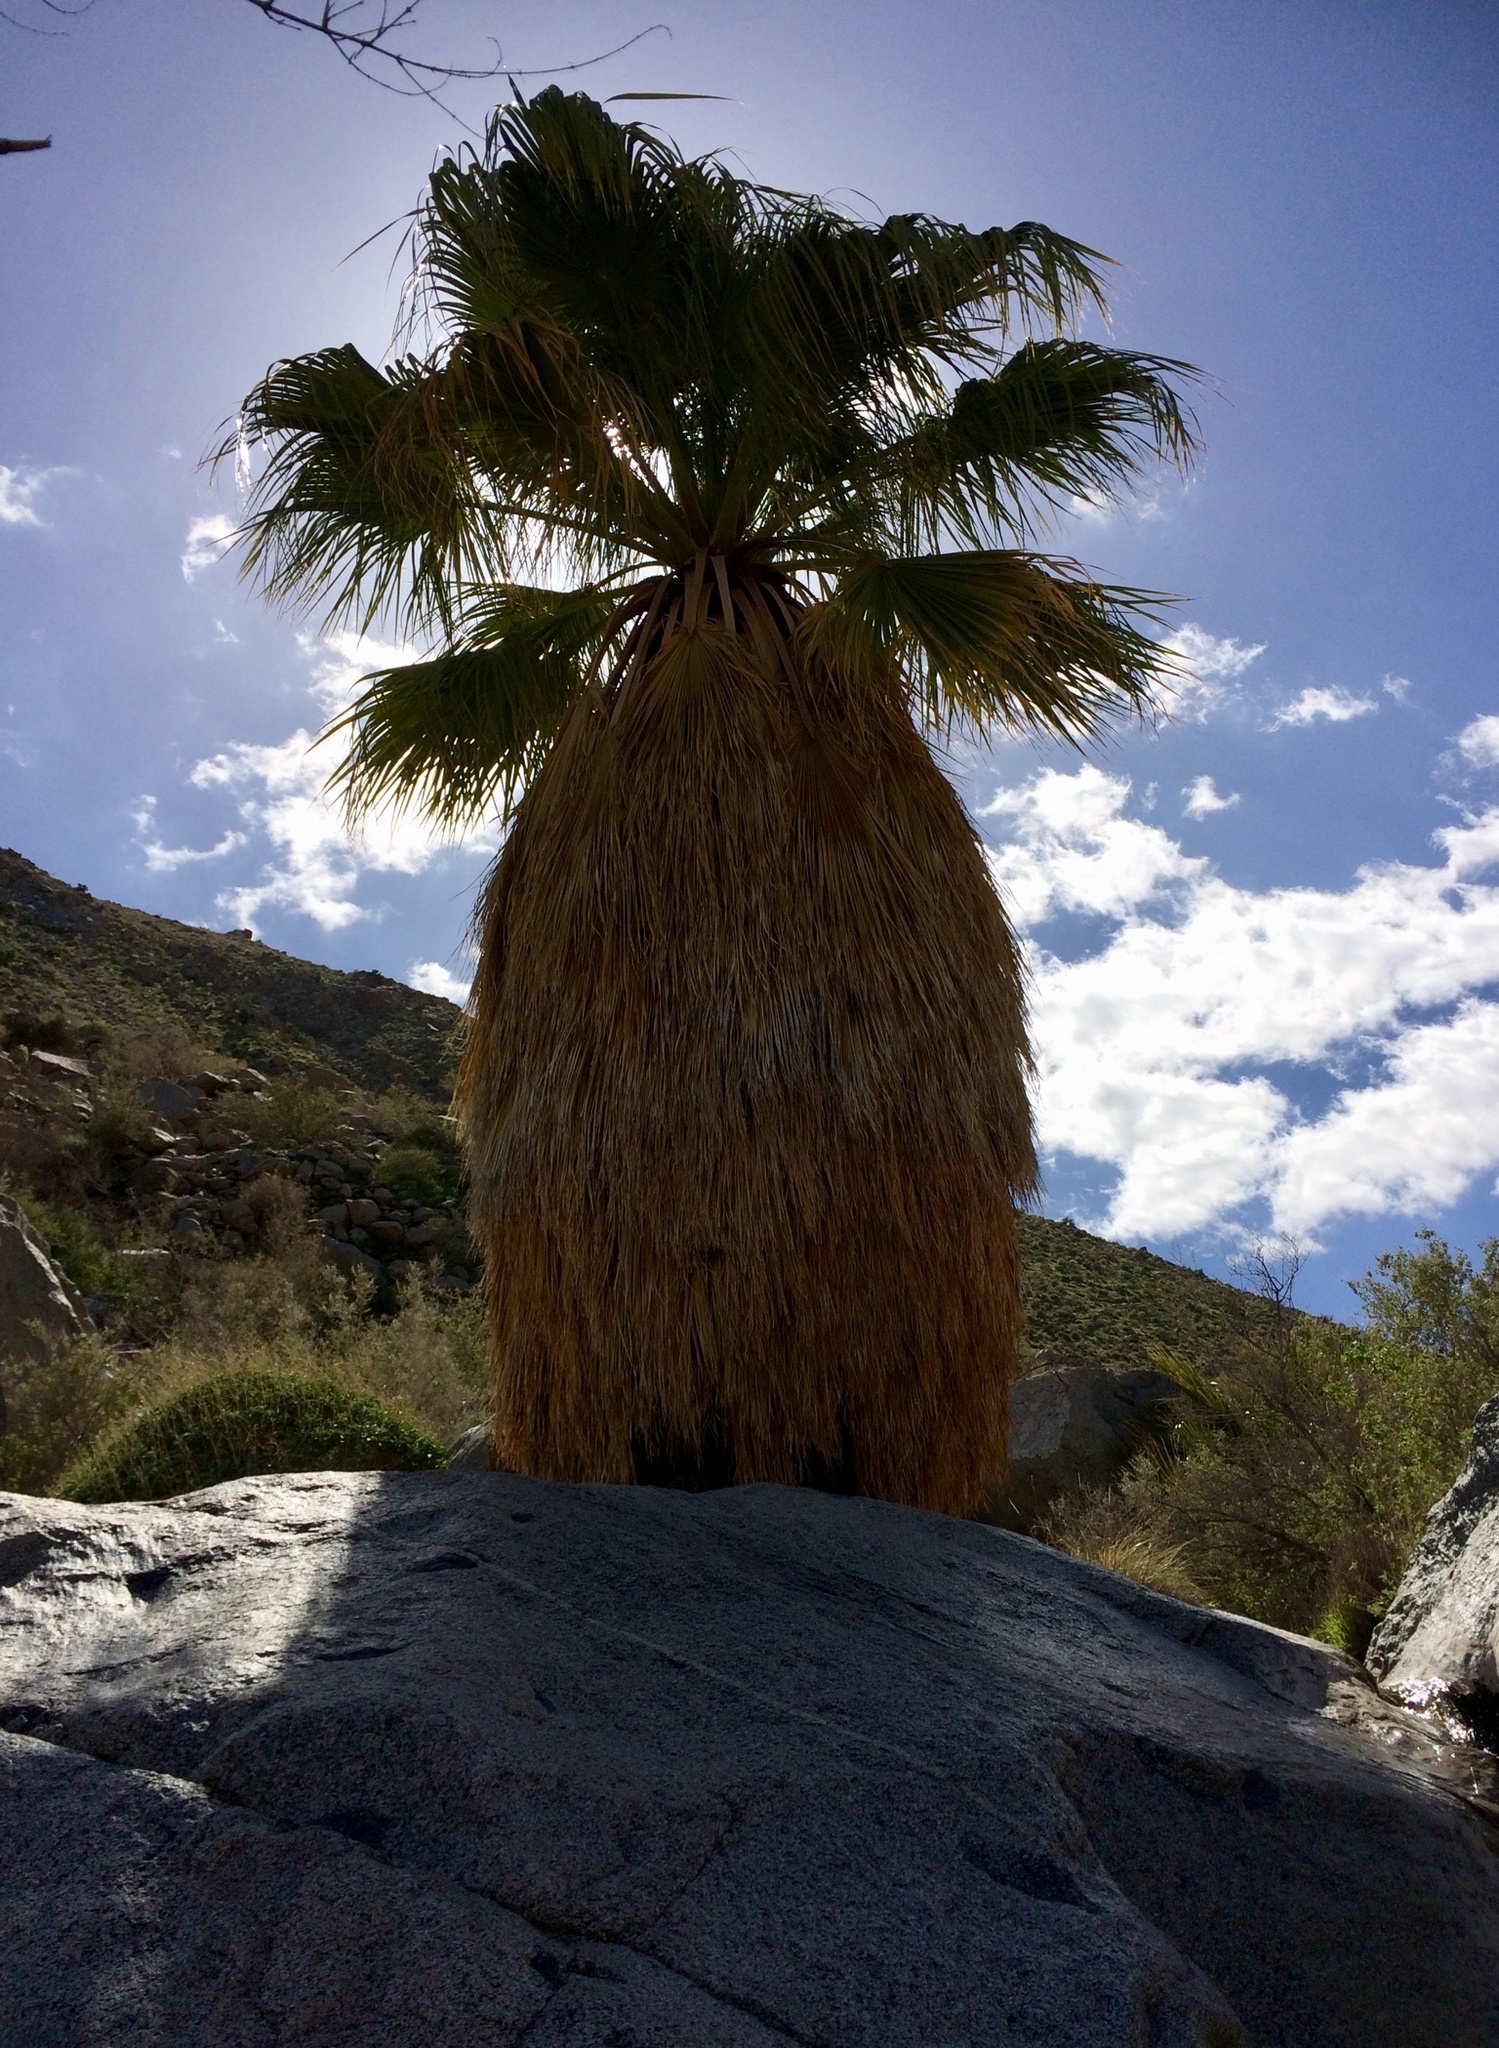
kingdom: Plantae
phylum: Tracheophyta
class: Liliopsida
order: Arecales
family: Arecaceae
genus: Washingtonia
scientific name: Washingtonia filifera
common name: California fan palm
